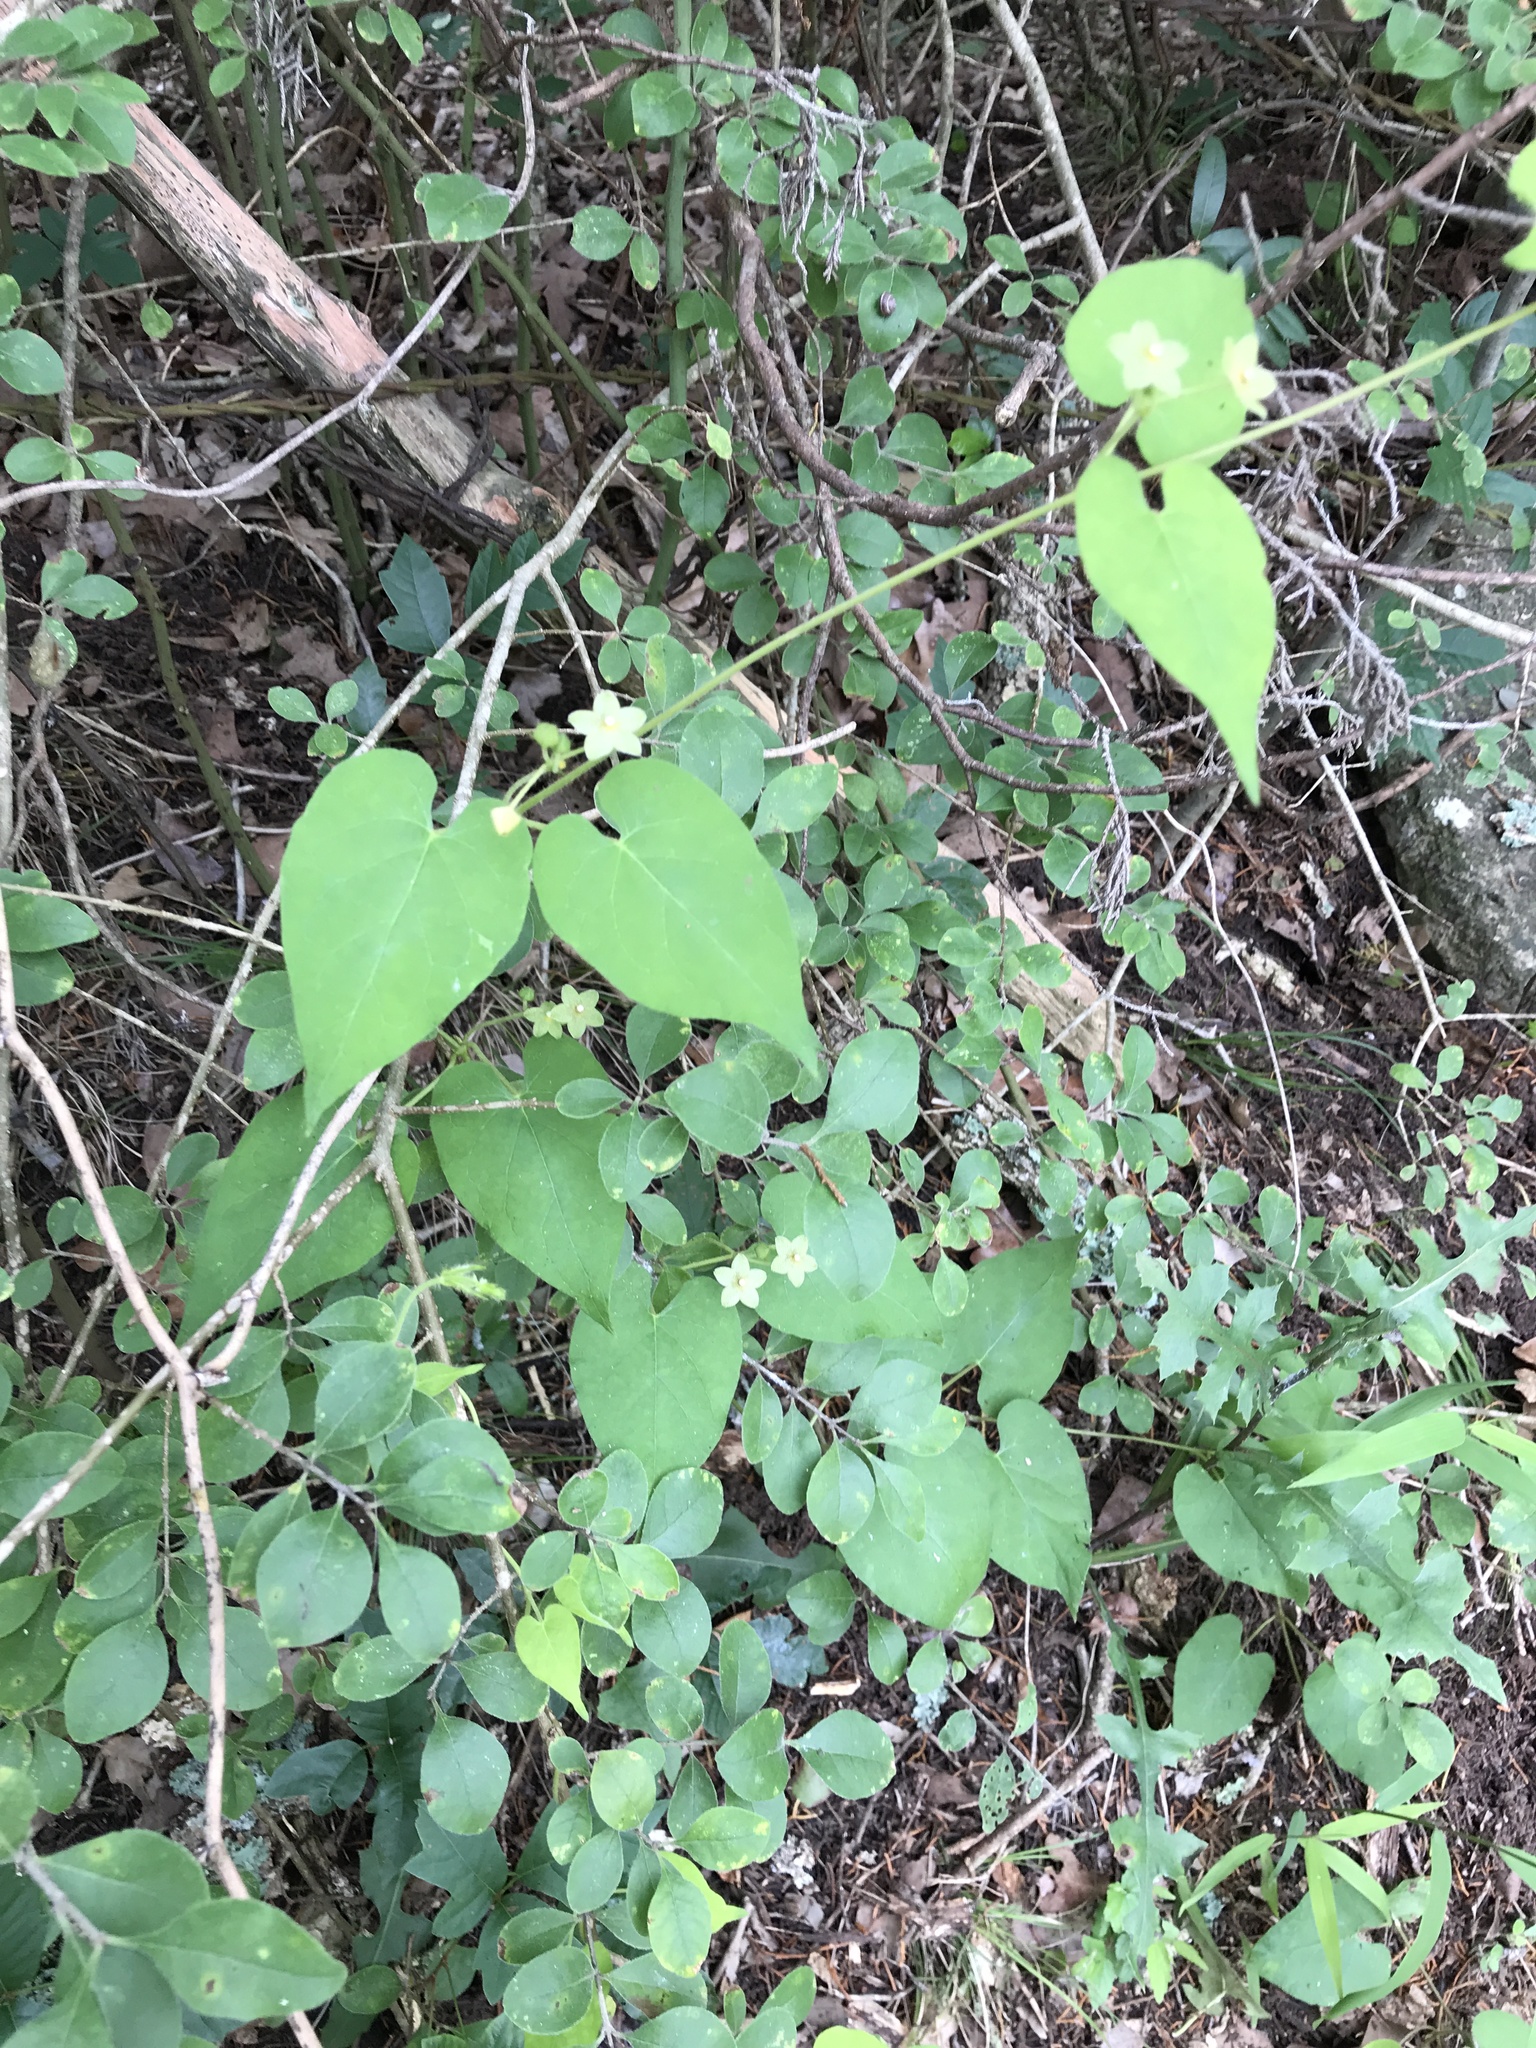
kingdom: Plantae
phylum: Tracheophyta
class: Magnoliopsida
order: Gentianales
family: Apocynaceae
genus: Dictyanthus
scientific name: Dictyanthus reticulatus
